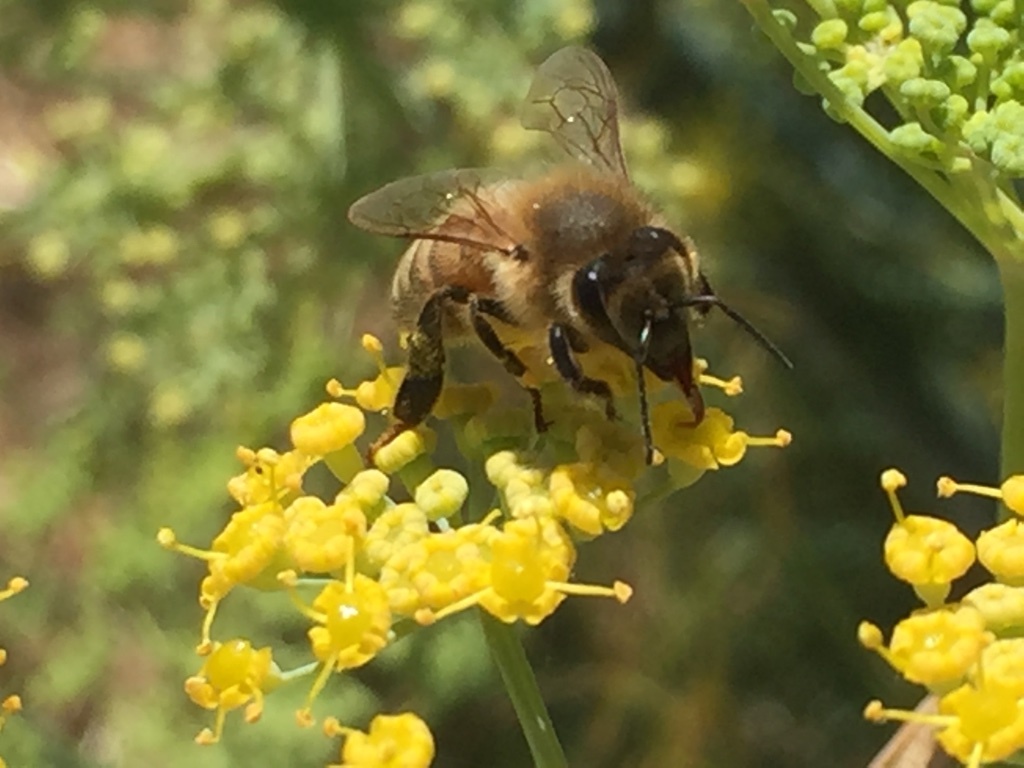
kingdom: Animalia
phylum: Arthropoda
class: Insecta
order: Hymenoptera
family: Apidae
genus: Apis
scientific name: Apis mellifera
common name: Honey bee
